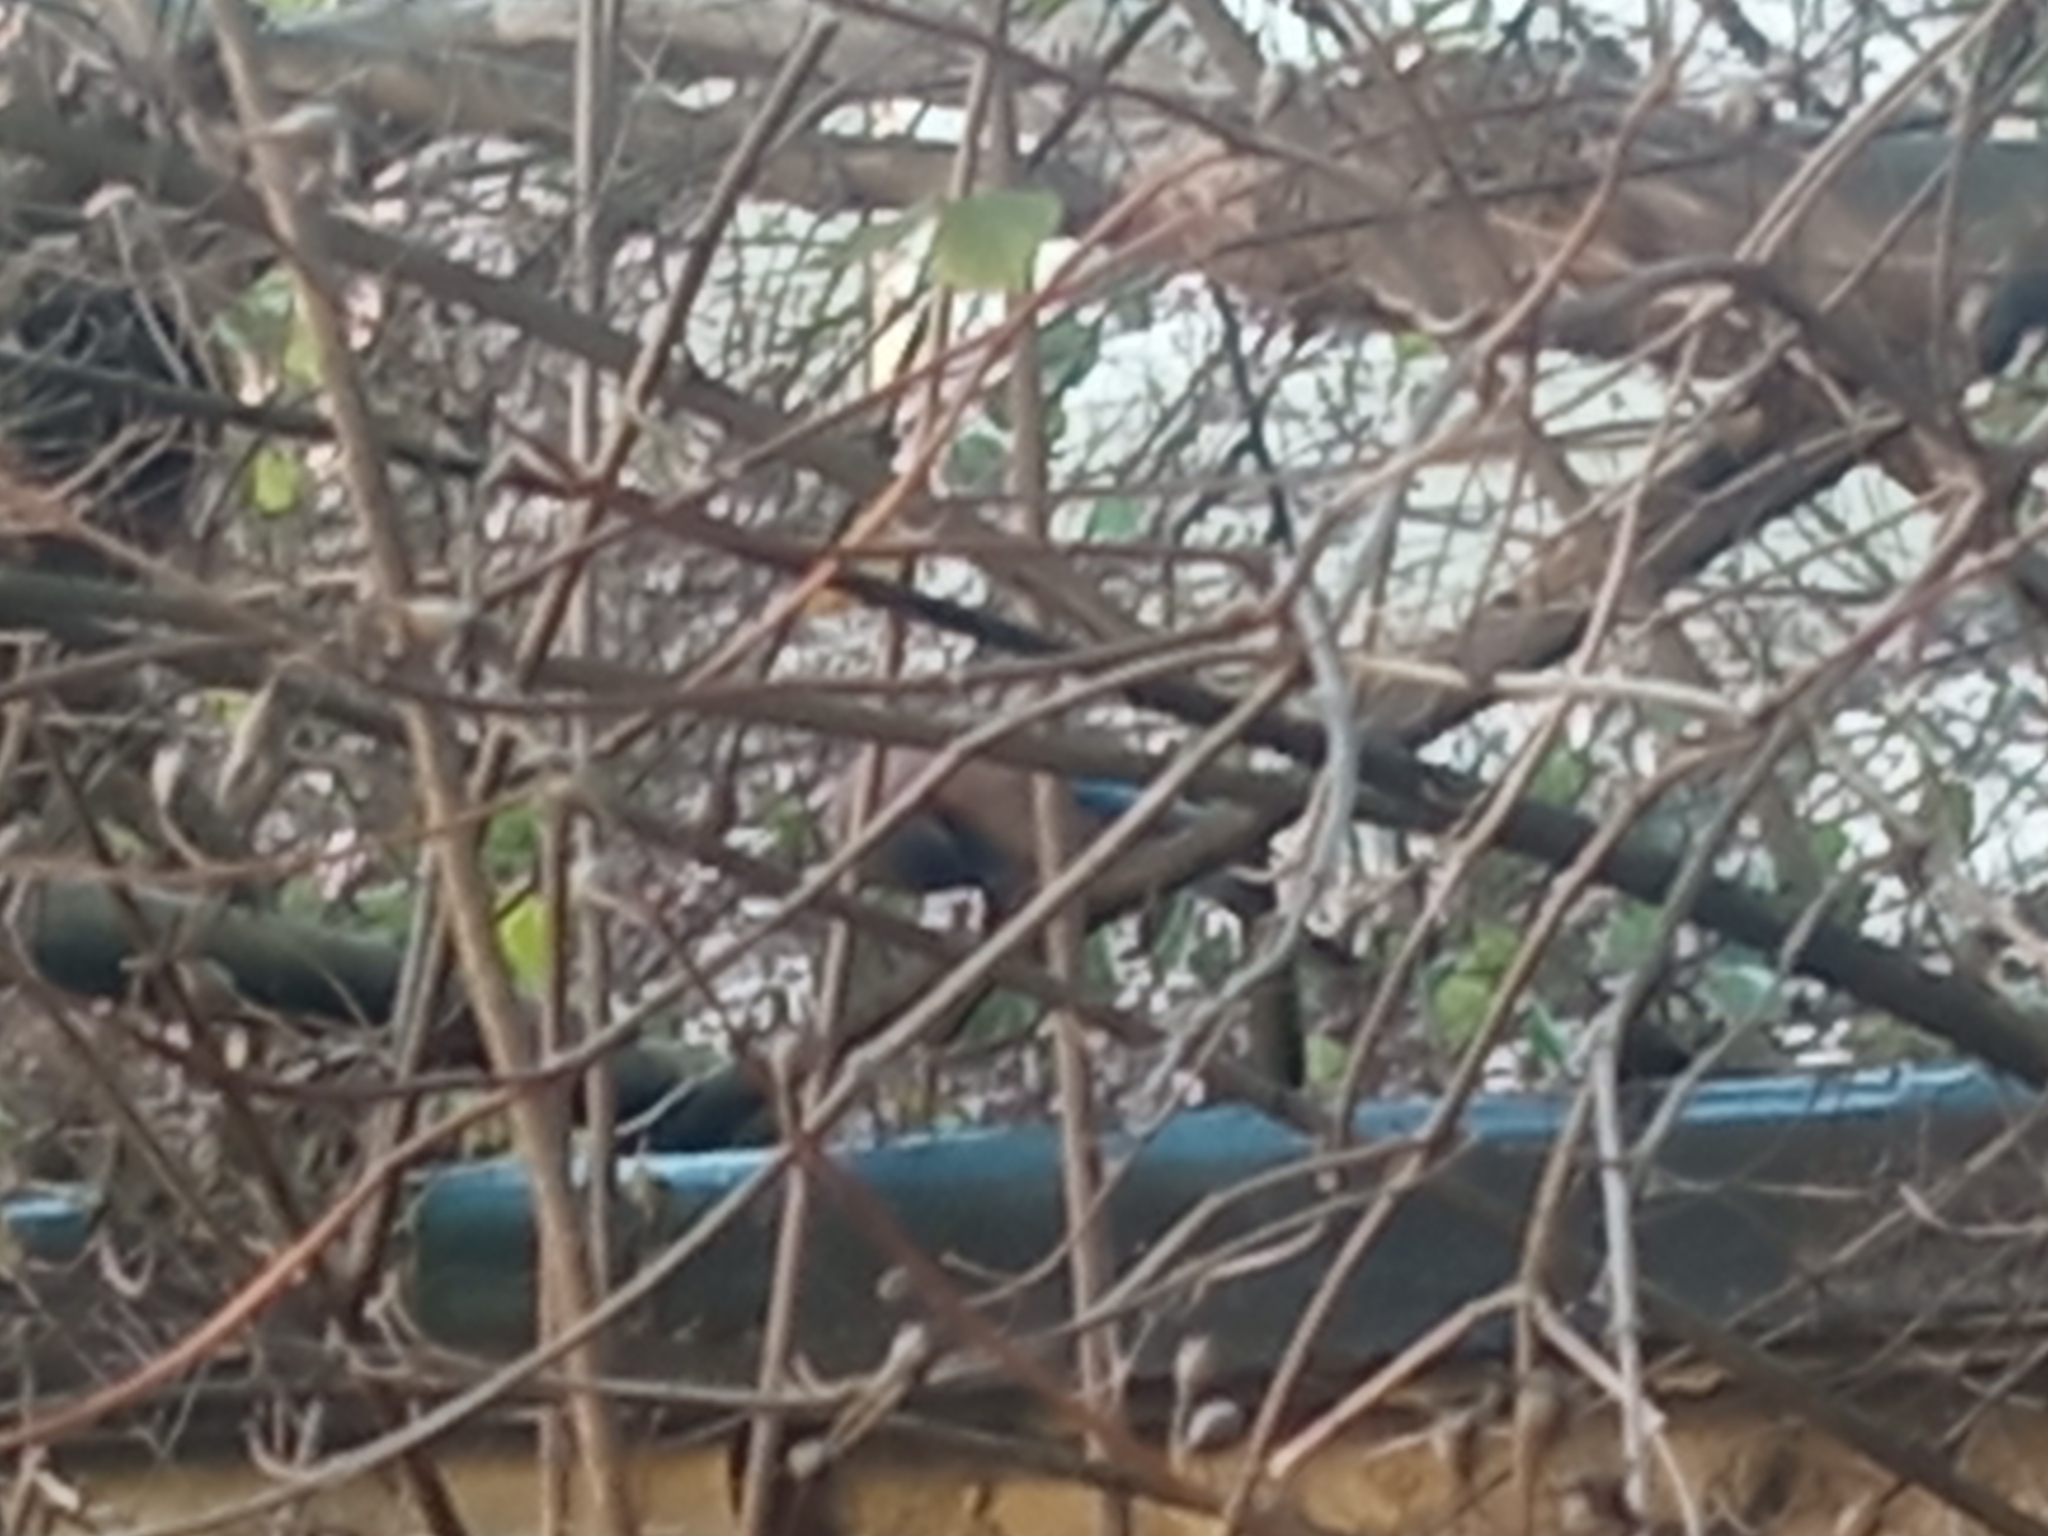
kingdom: Animalia
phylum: Chordata
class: Aves
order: Passeriformes
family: Corvidae
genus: Garrulus
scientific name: Garrulus glandarius
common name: Eurasian jay
